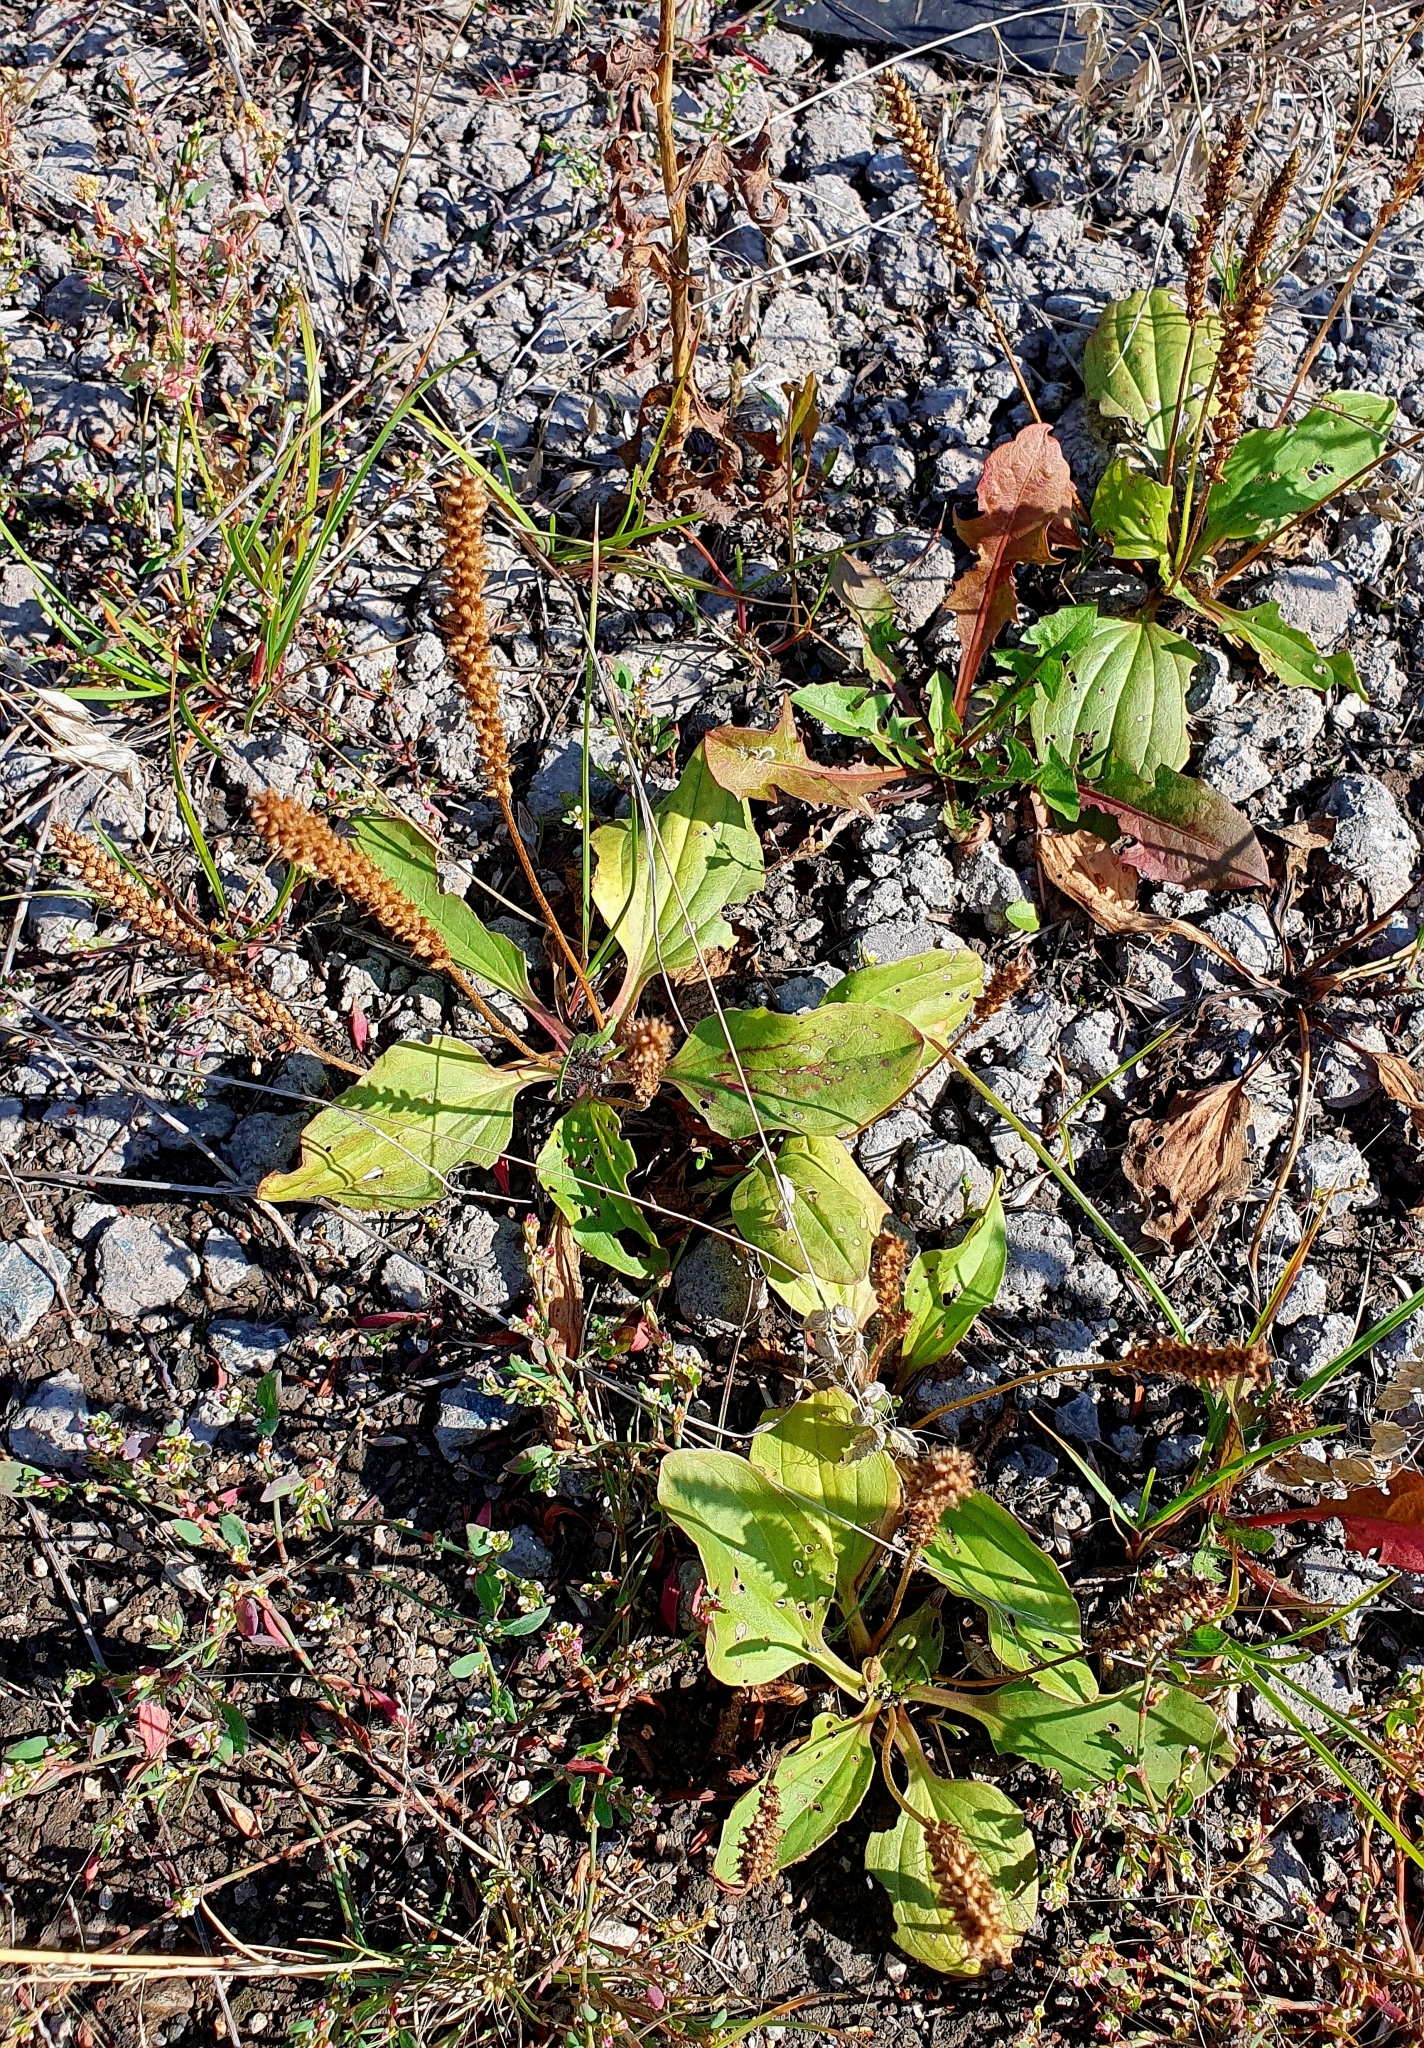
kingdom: Plantae
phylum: Tracheophyta
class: Magnoliopsida
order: Lamiales
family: Plantaginaceae
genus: Plantago
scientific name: Plantago major
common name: Common plantain
